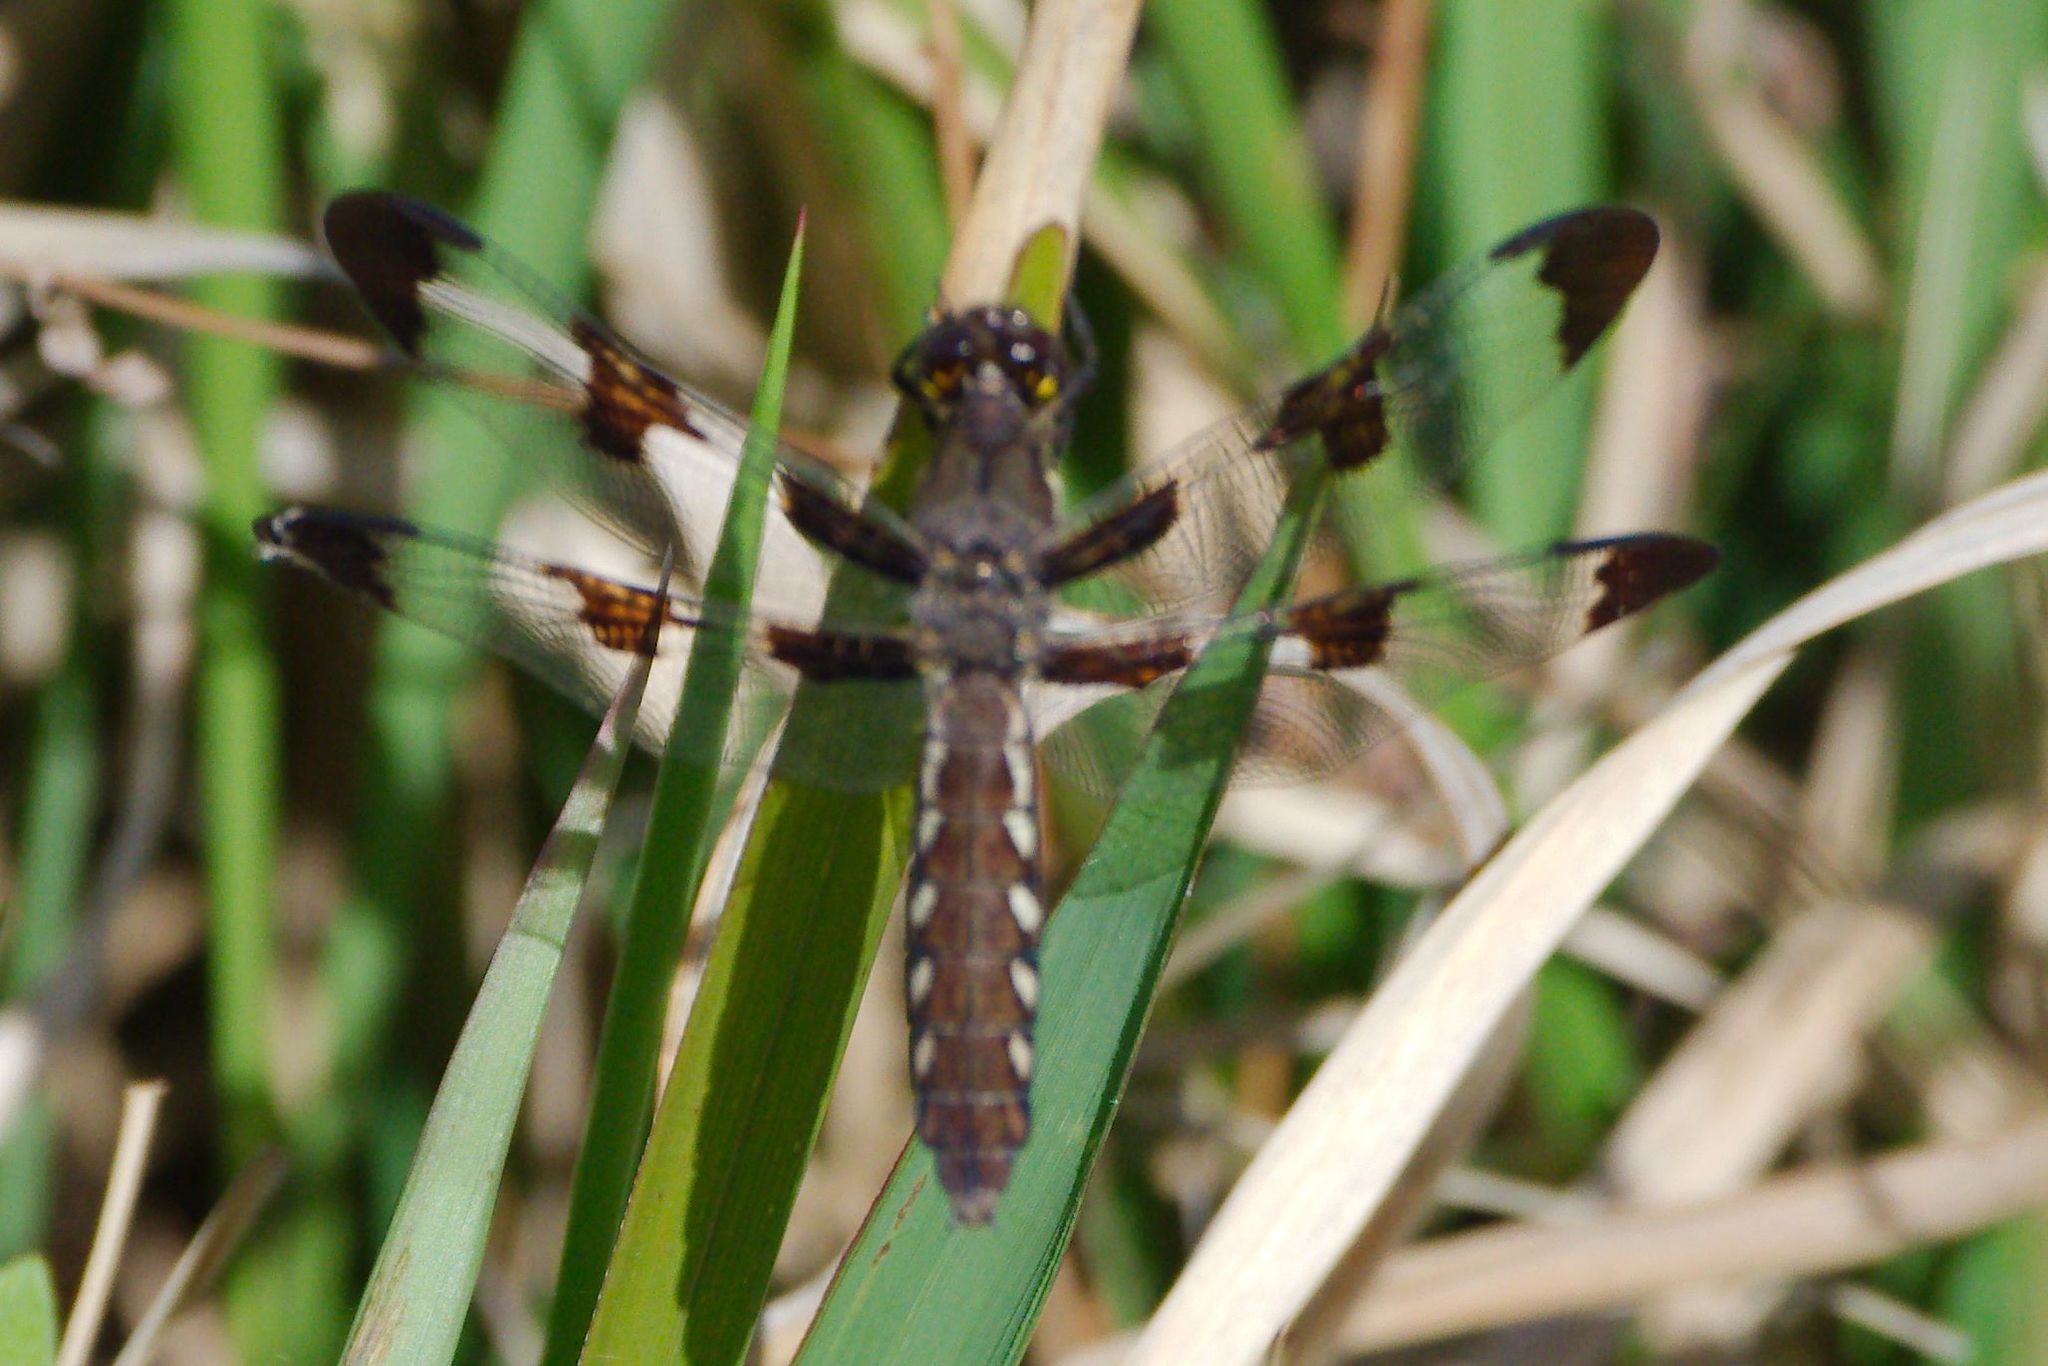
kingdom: Animalia
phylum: Arthropoda
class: Insecta
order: Odonata
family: Libellulidae
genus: Plathemis
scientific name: Plathemis lydia
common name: Common whitetail
